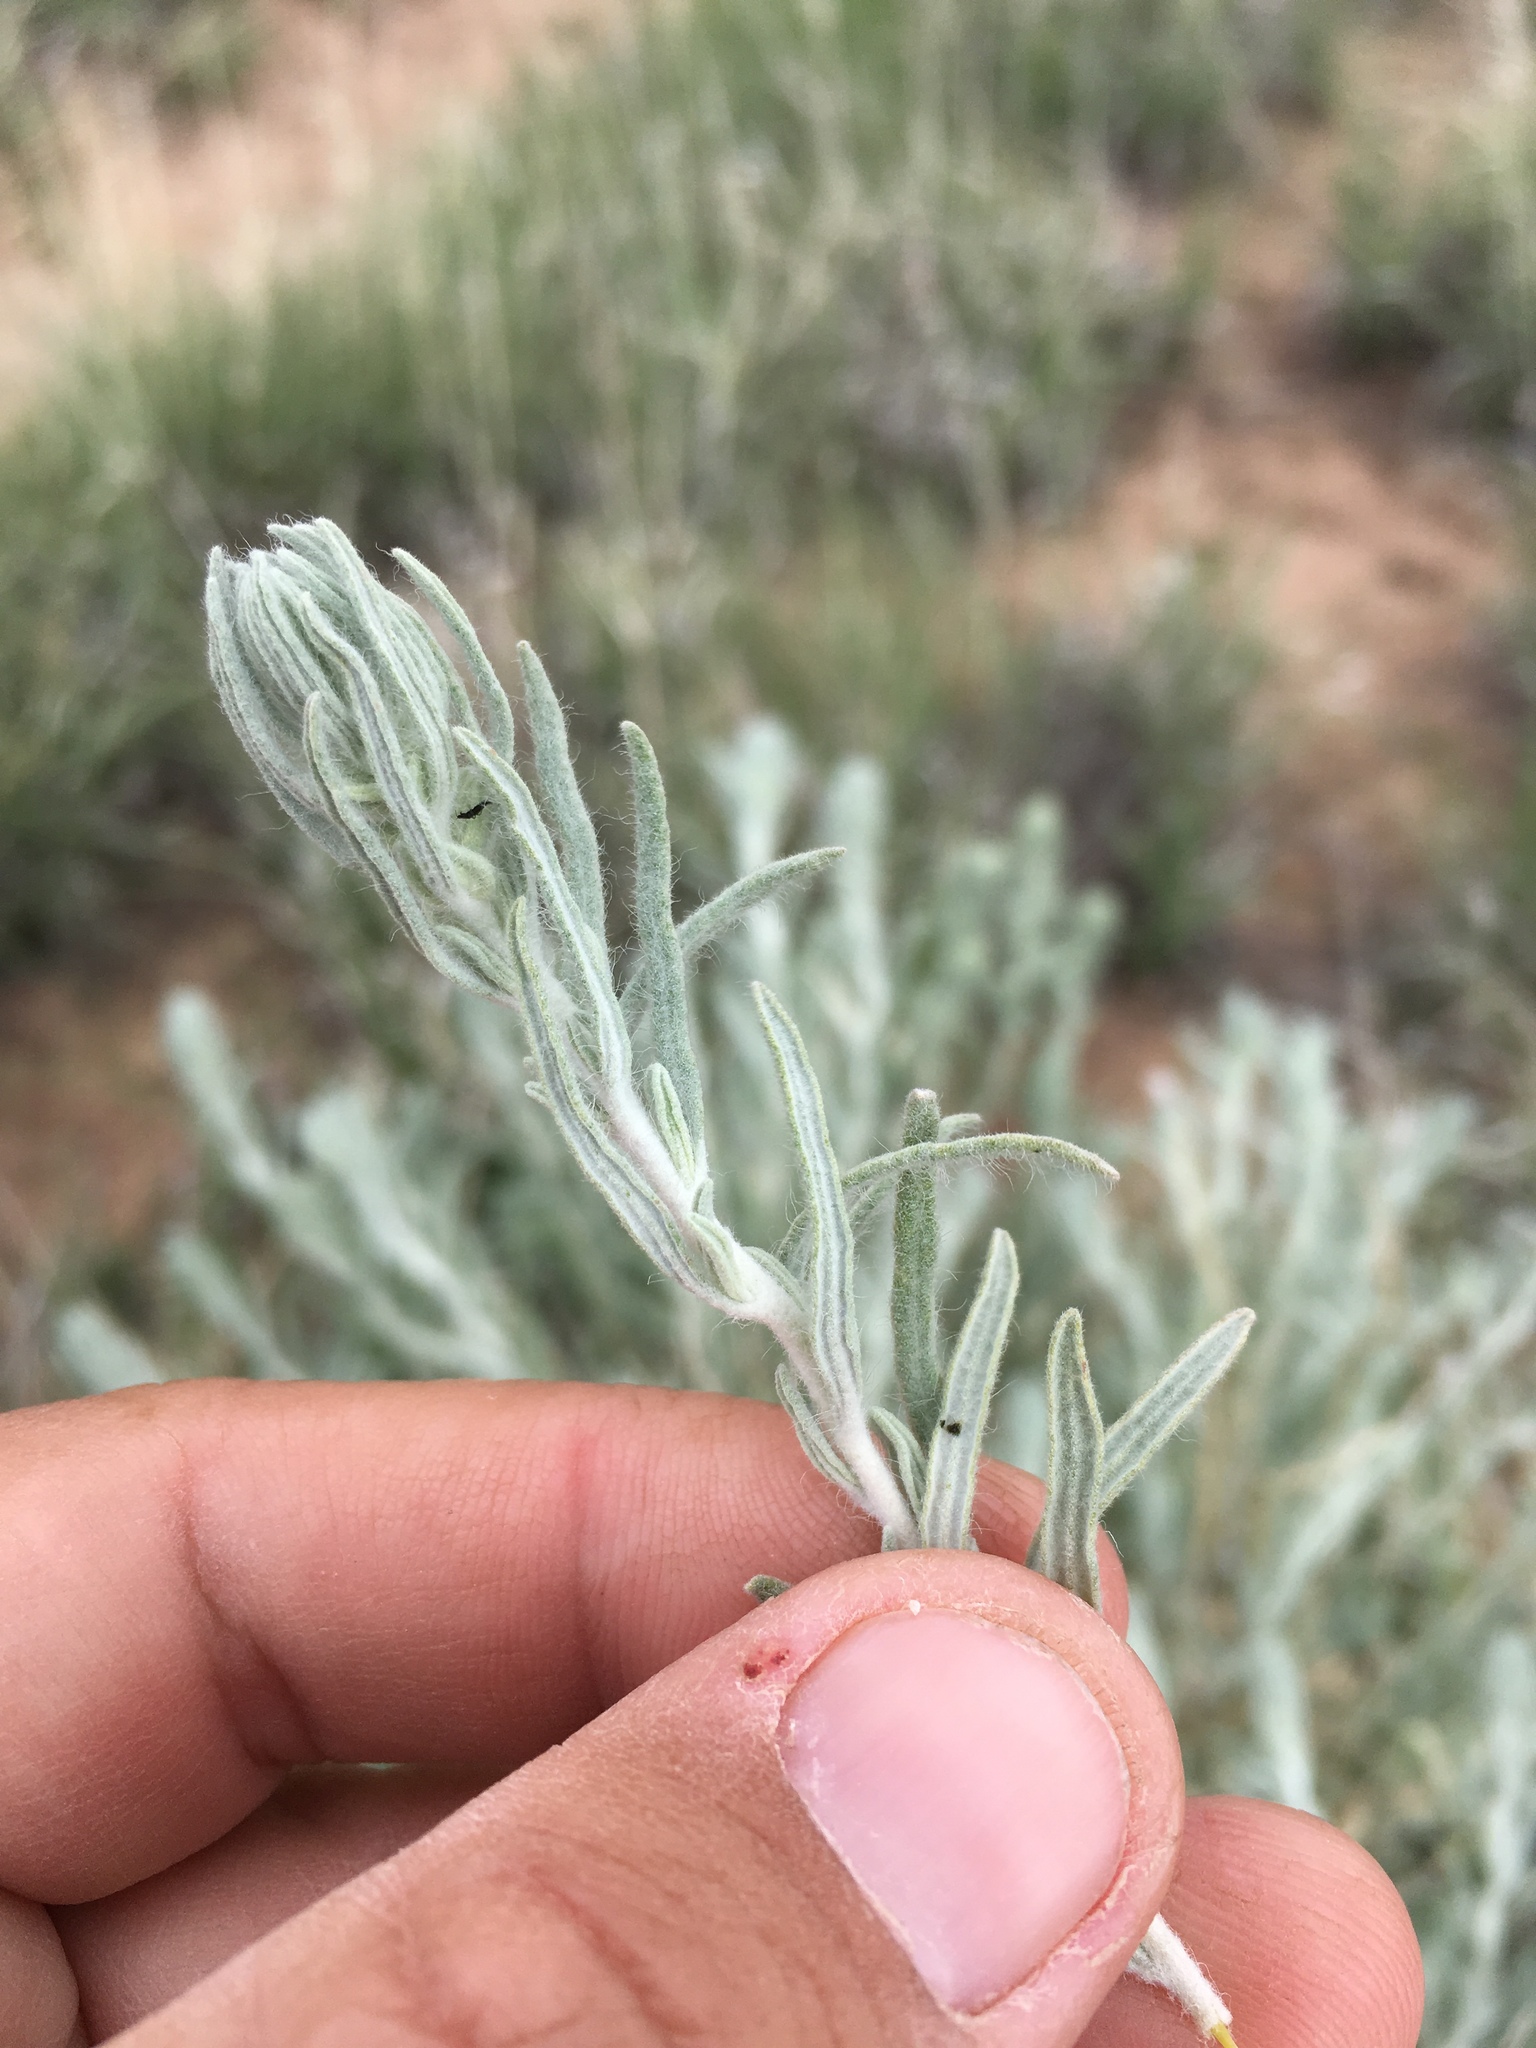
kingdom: Plantae
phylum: Tracheophyta
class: Magnoliopsida
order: Caryophyllales
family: Amaranthaceae
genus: Krascheninnikovia
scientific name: Krascheninnikovia lanata
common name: Winterfat
